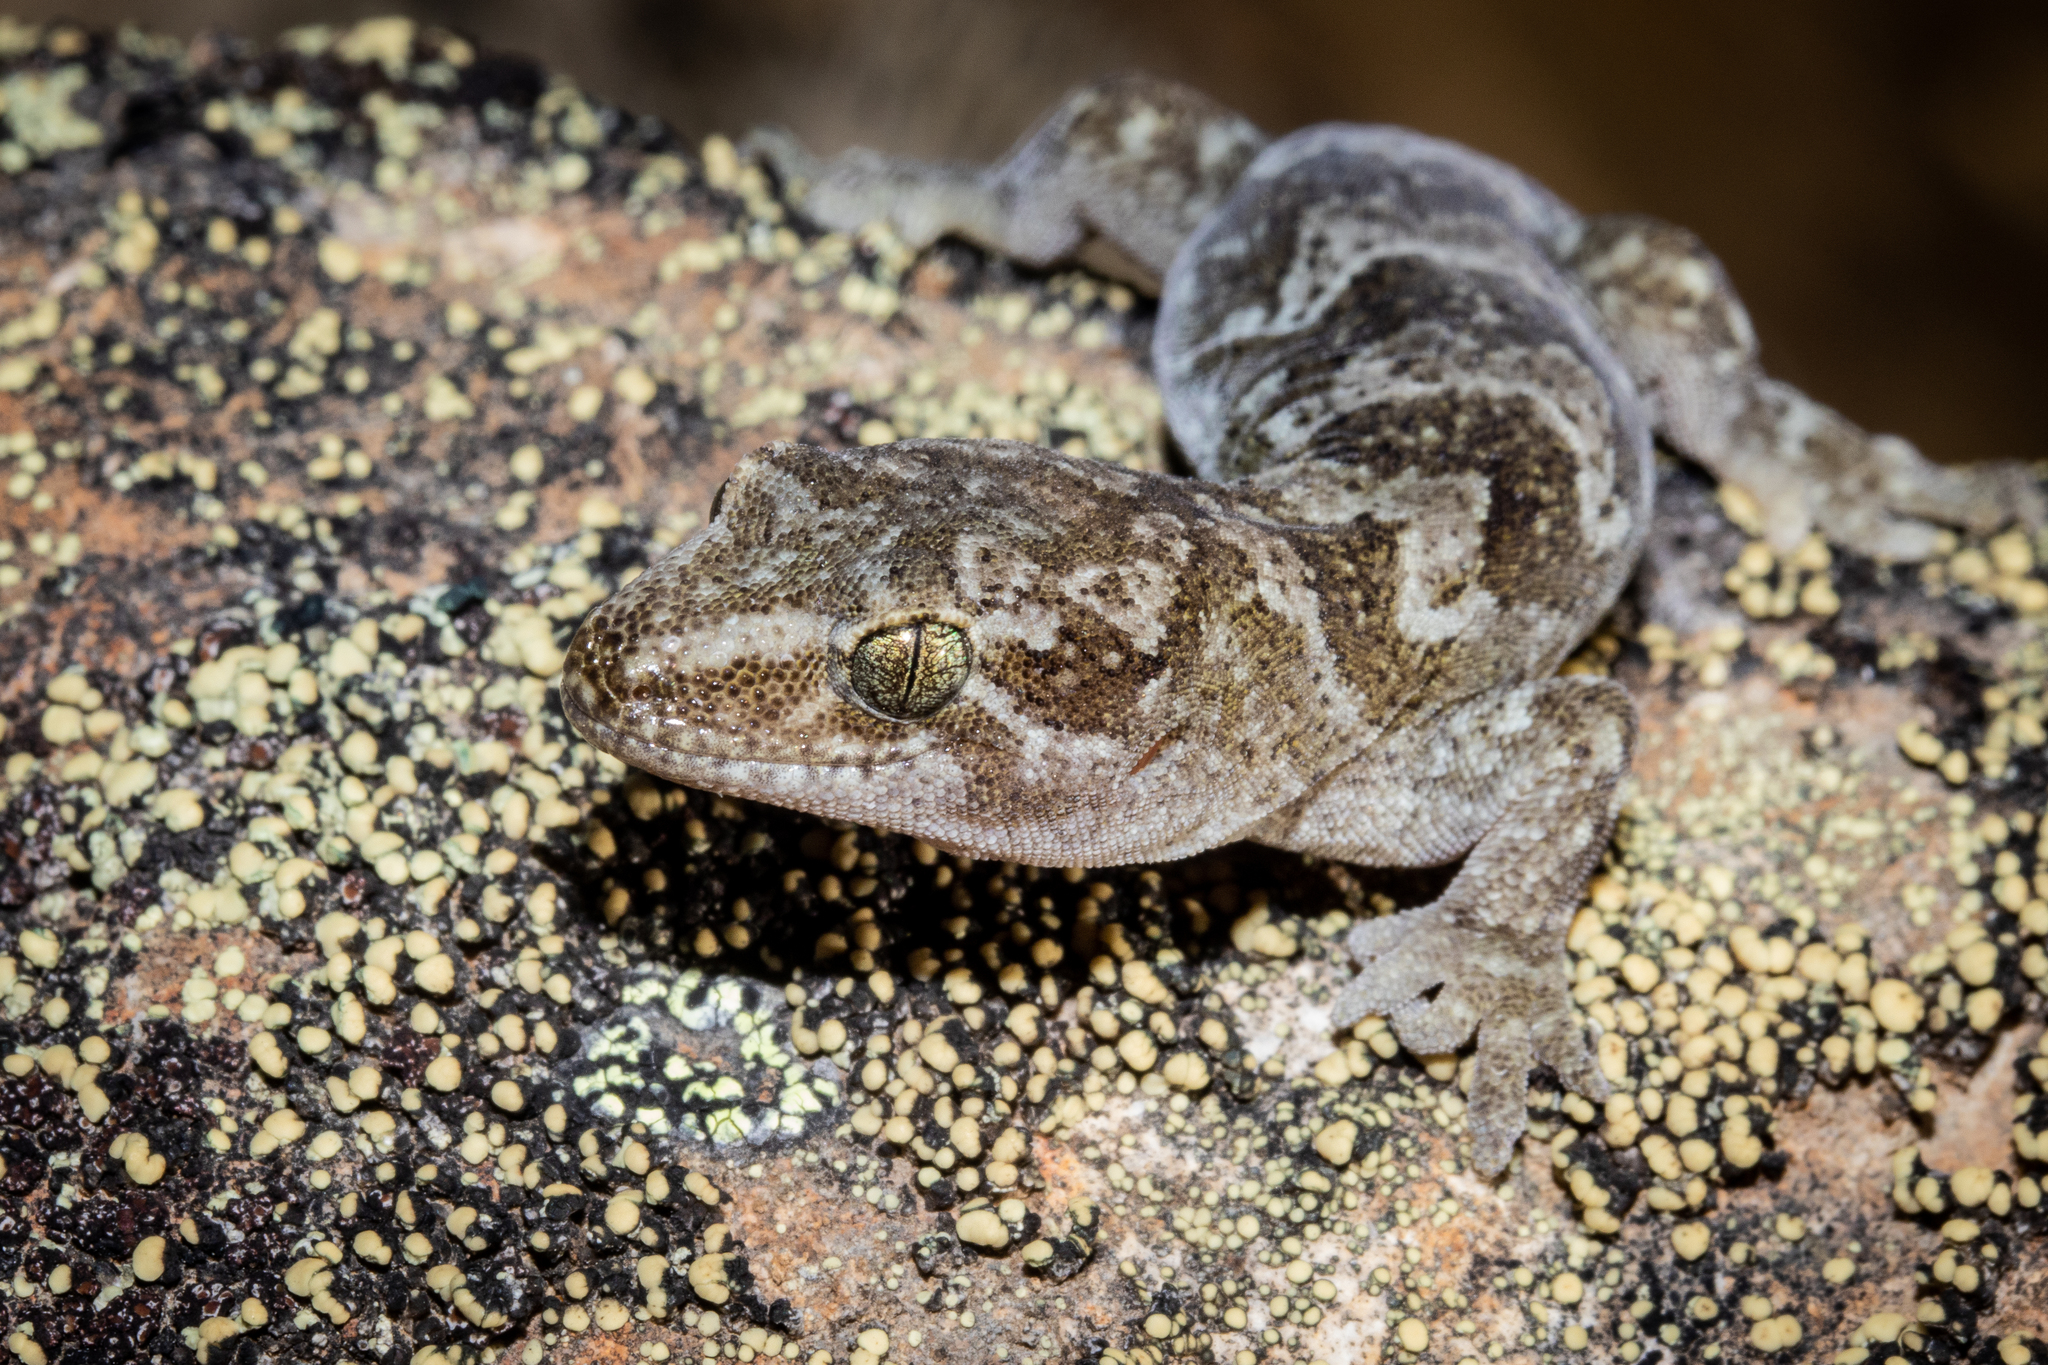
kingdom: Animalia
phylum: Chordata
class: Squamata
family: Diplodactylidae
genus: Woodworthia
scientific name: Woodworthia
